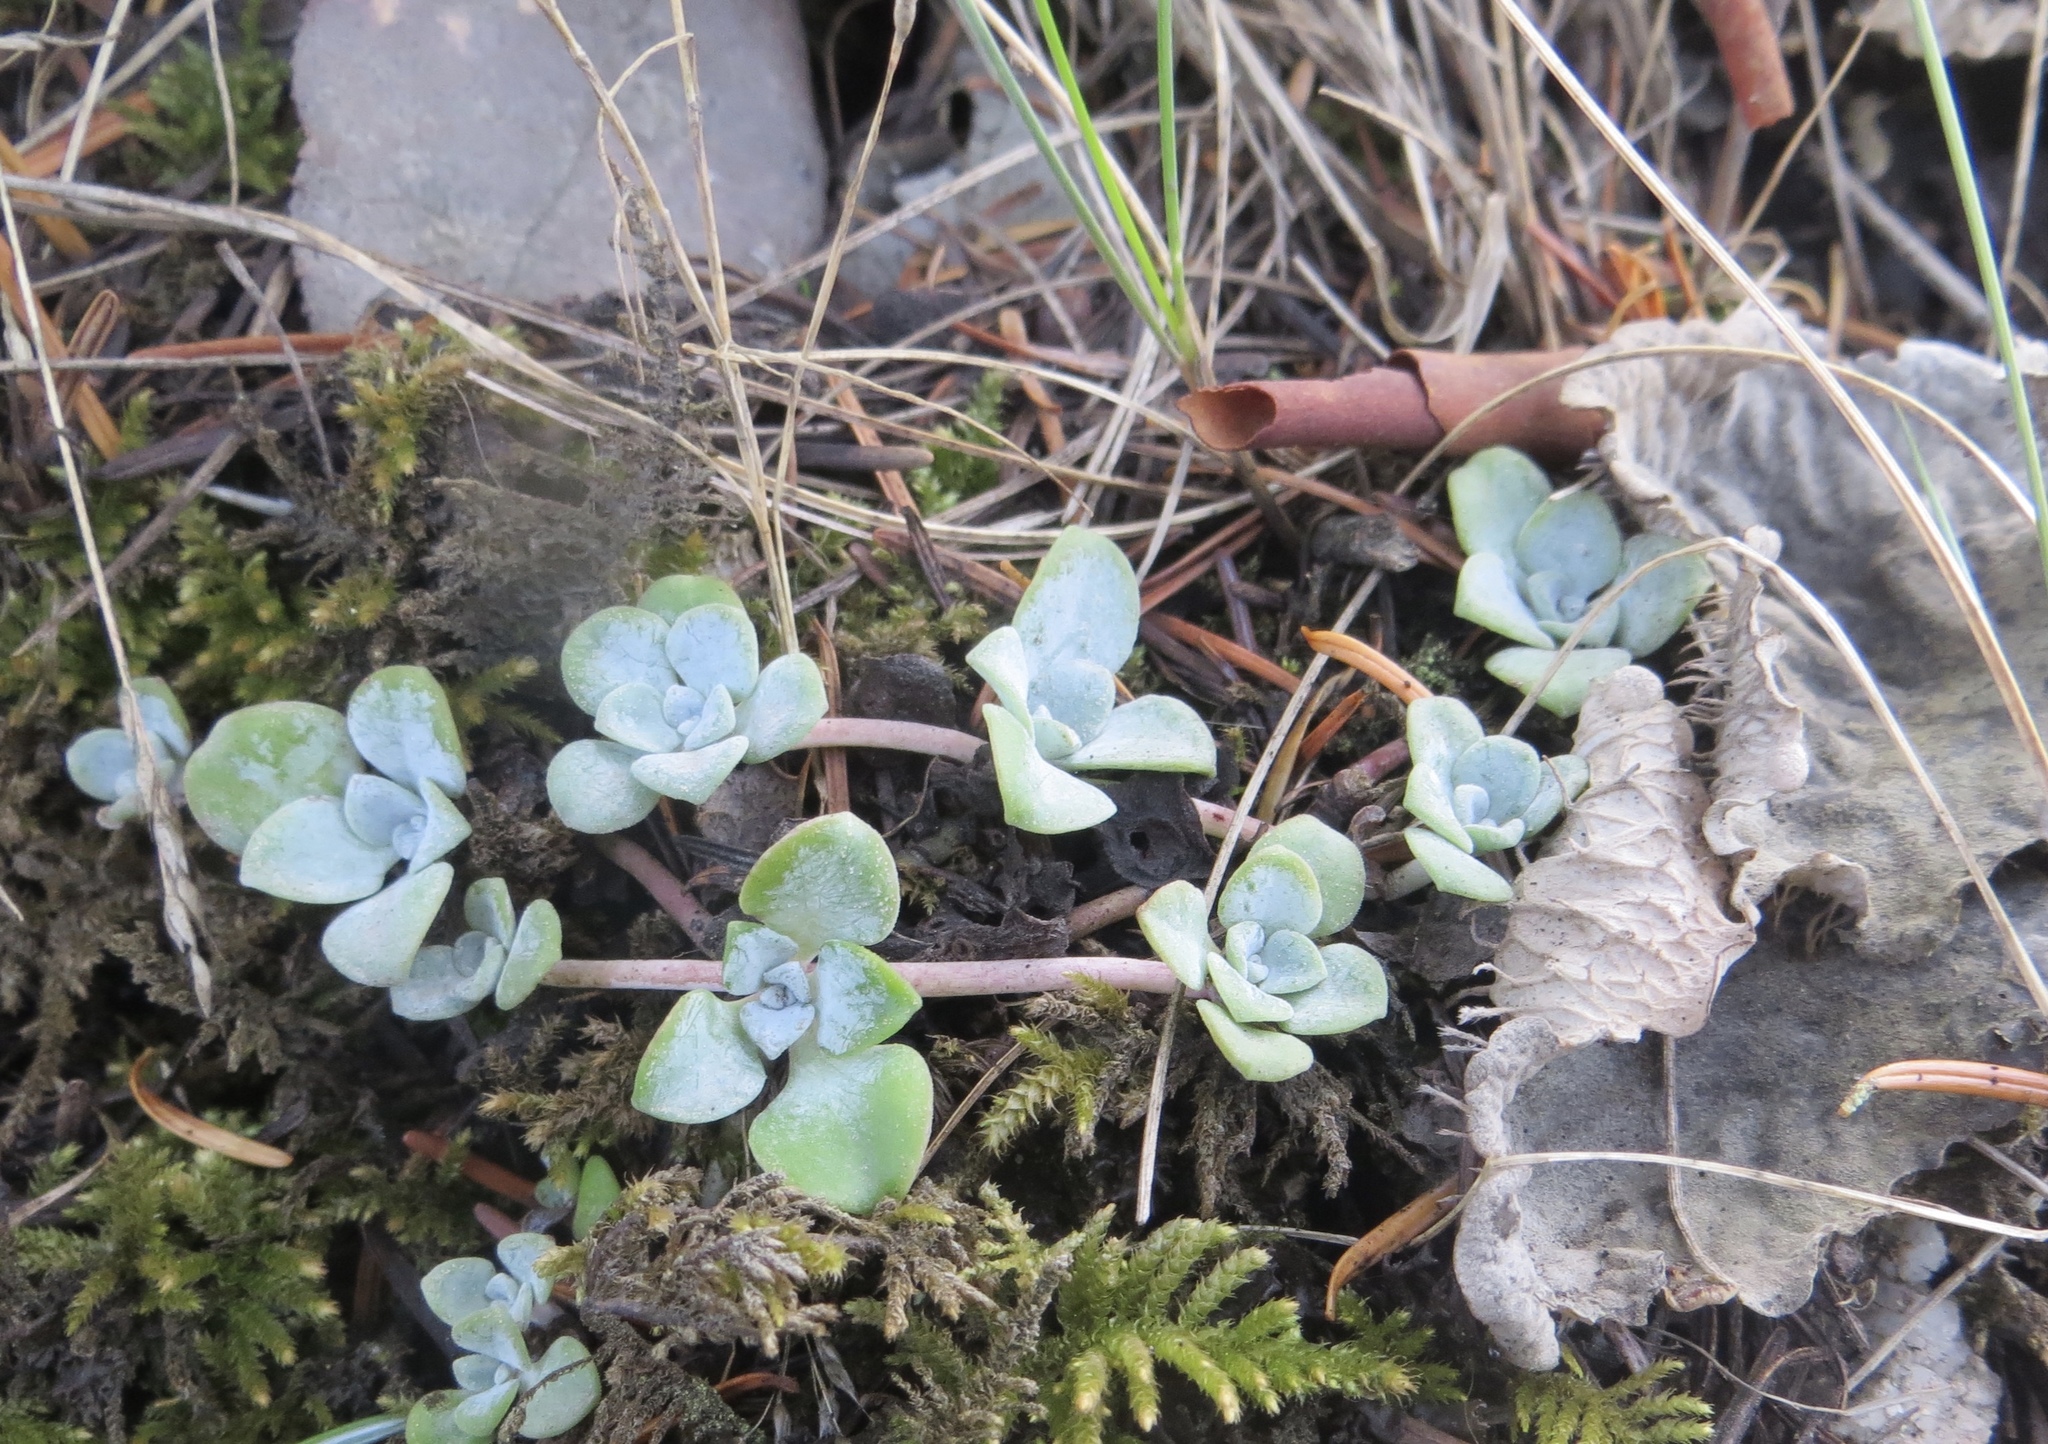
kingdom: Plantae
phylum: Tracheophyta
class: Magnoliopsida
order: Saxifragales
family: Crassulaceae
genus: Sedum
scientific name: Sedum spathulifolium
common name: Colorado stonecrop
